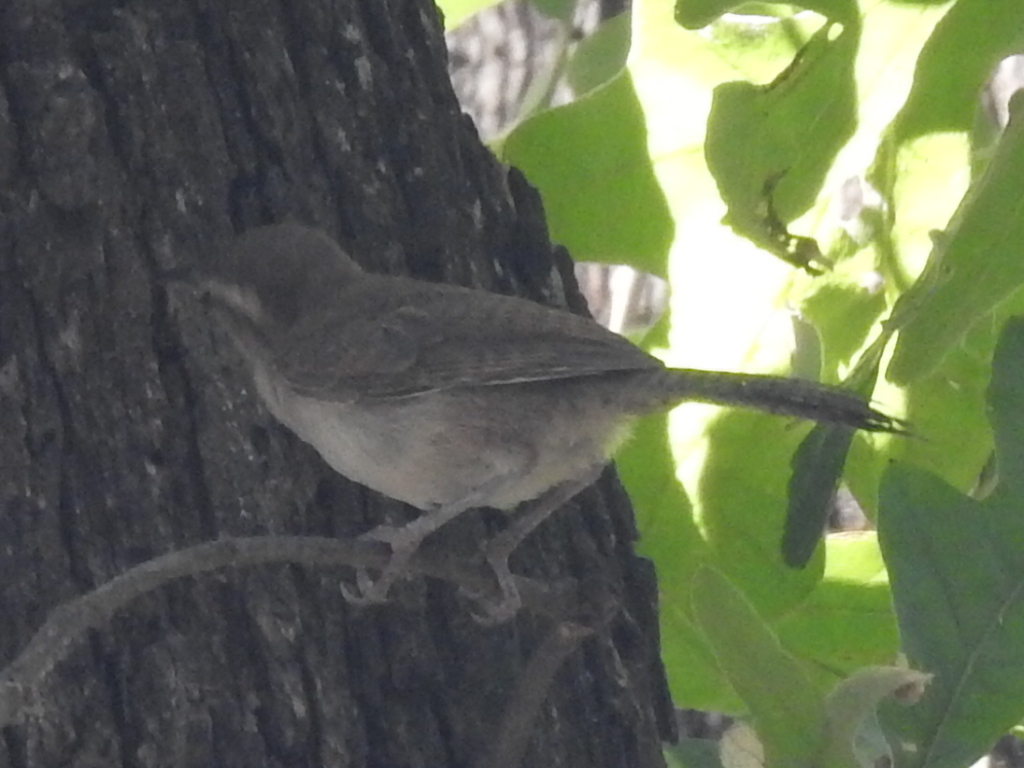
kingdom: Animalia
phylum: Chordata
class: Aves
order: Passeriformes
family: Troglodytidae
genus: Thryomanes
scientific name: Thryomanes bewickii
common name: Bewick's wren
